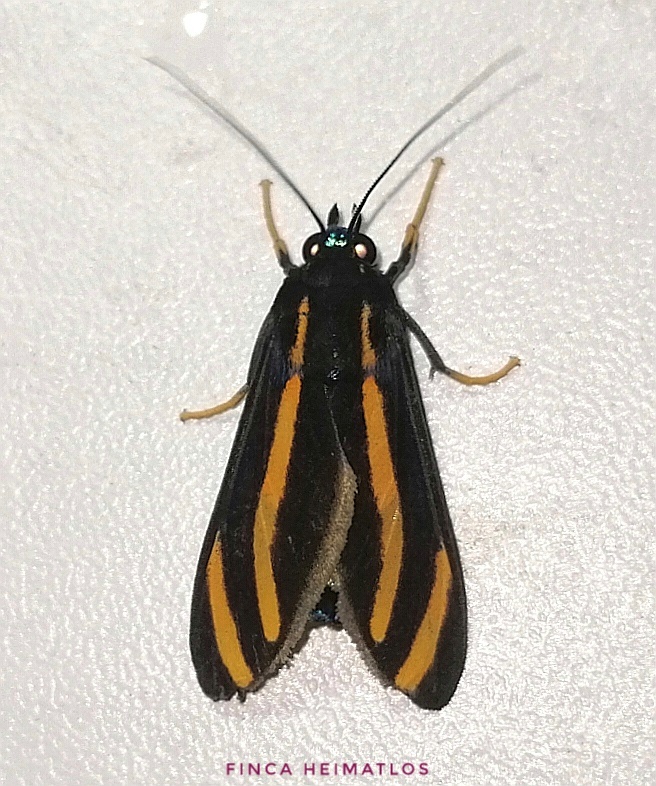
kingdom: Animalia
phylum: Arthropoda
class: Insecta
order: Lepidoptera
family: Erebidae
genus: Ormetica
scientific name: Ormetica packardi
